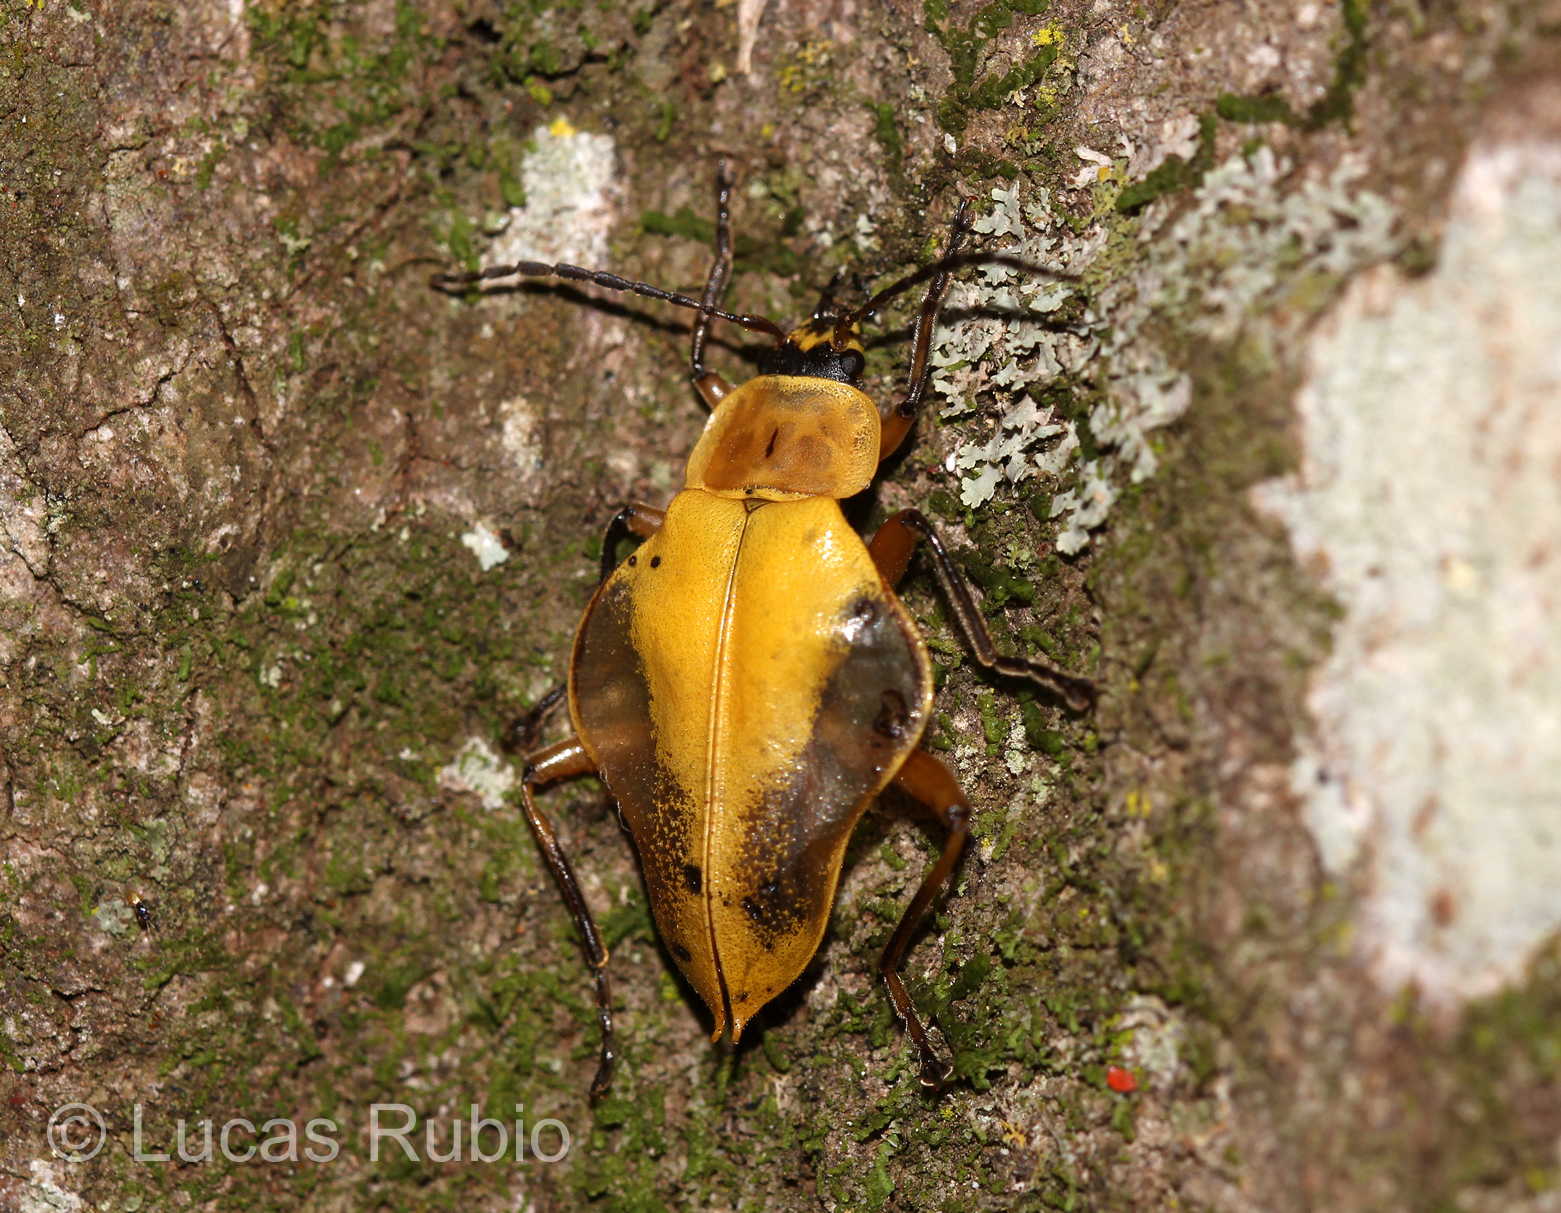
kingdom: Animalia
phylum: Arthropoda
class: Insecta
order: Coleoptera
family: Cantharidae
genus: Chauliognathus
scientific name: Chauliognathus
